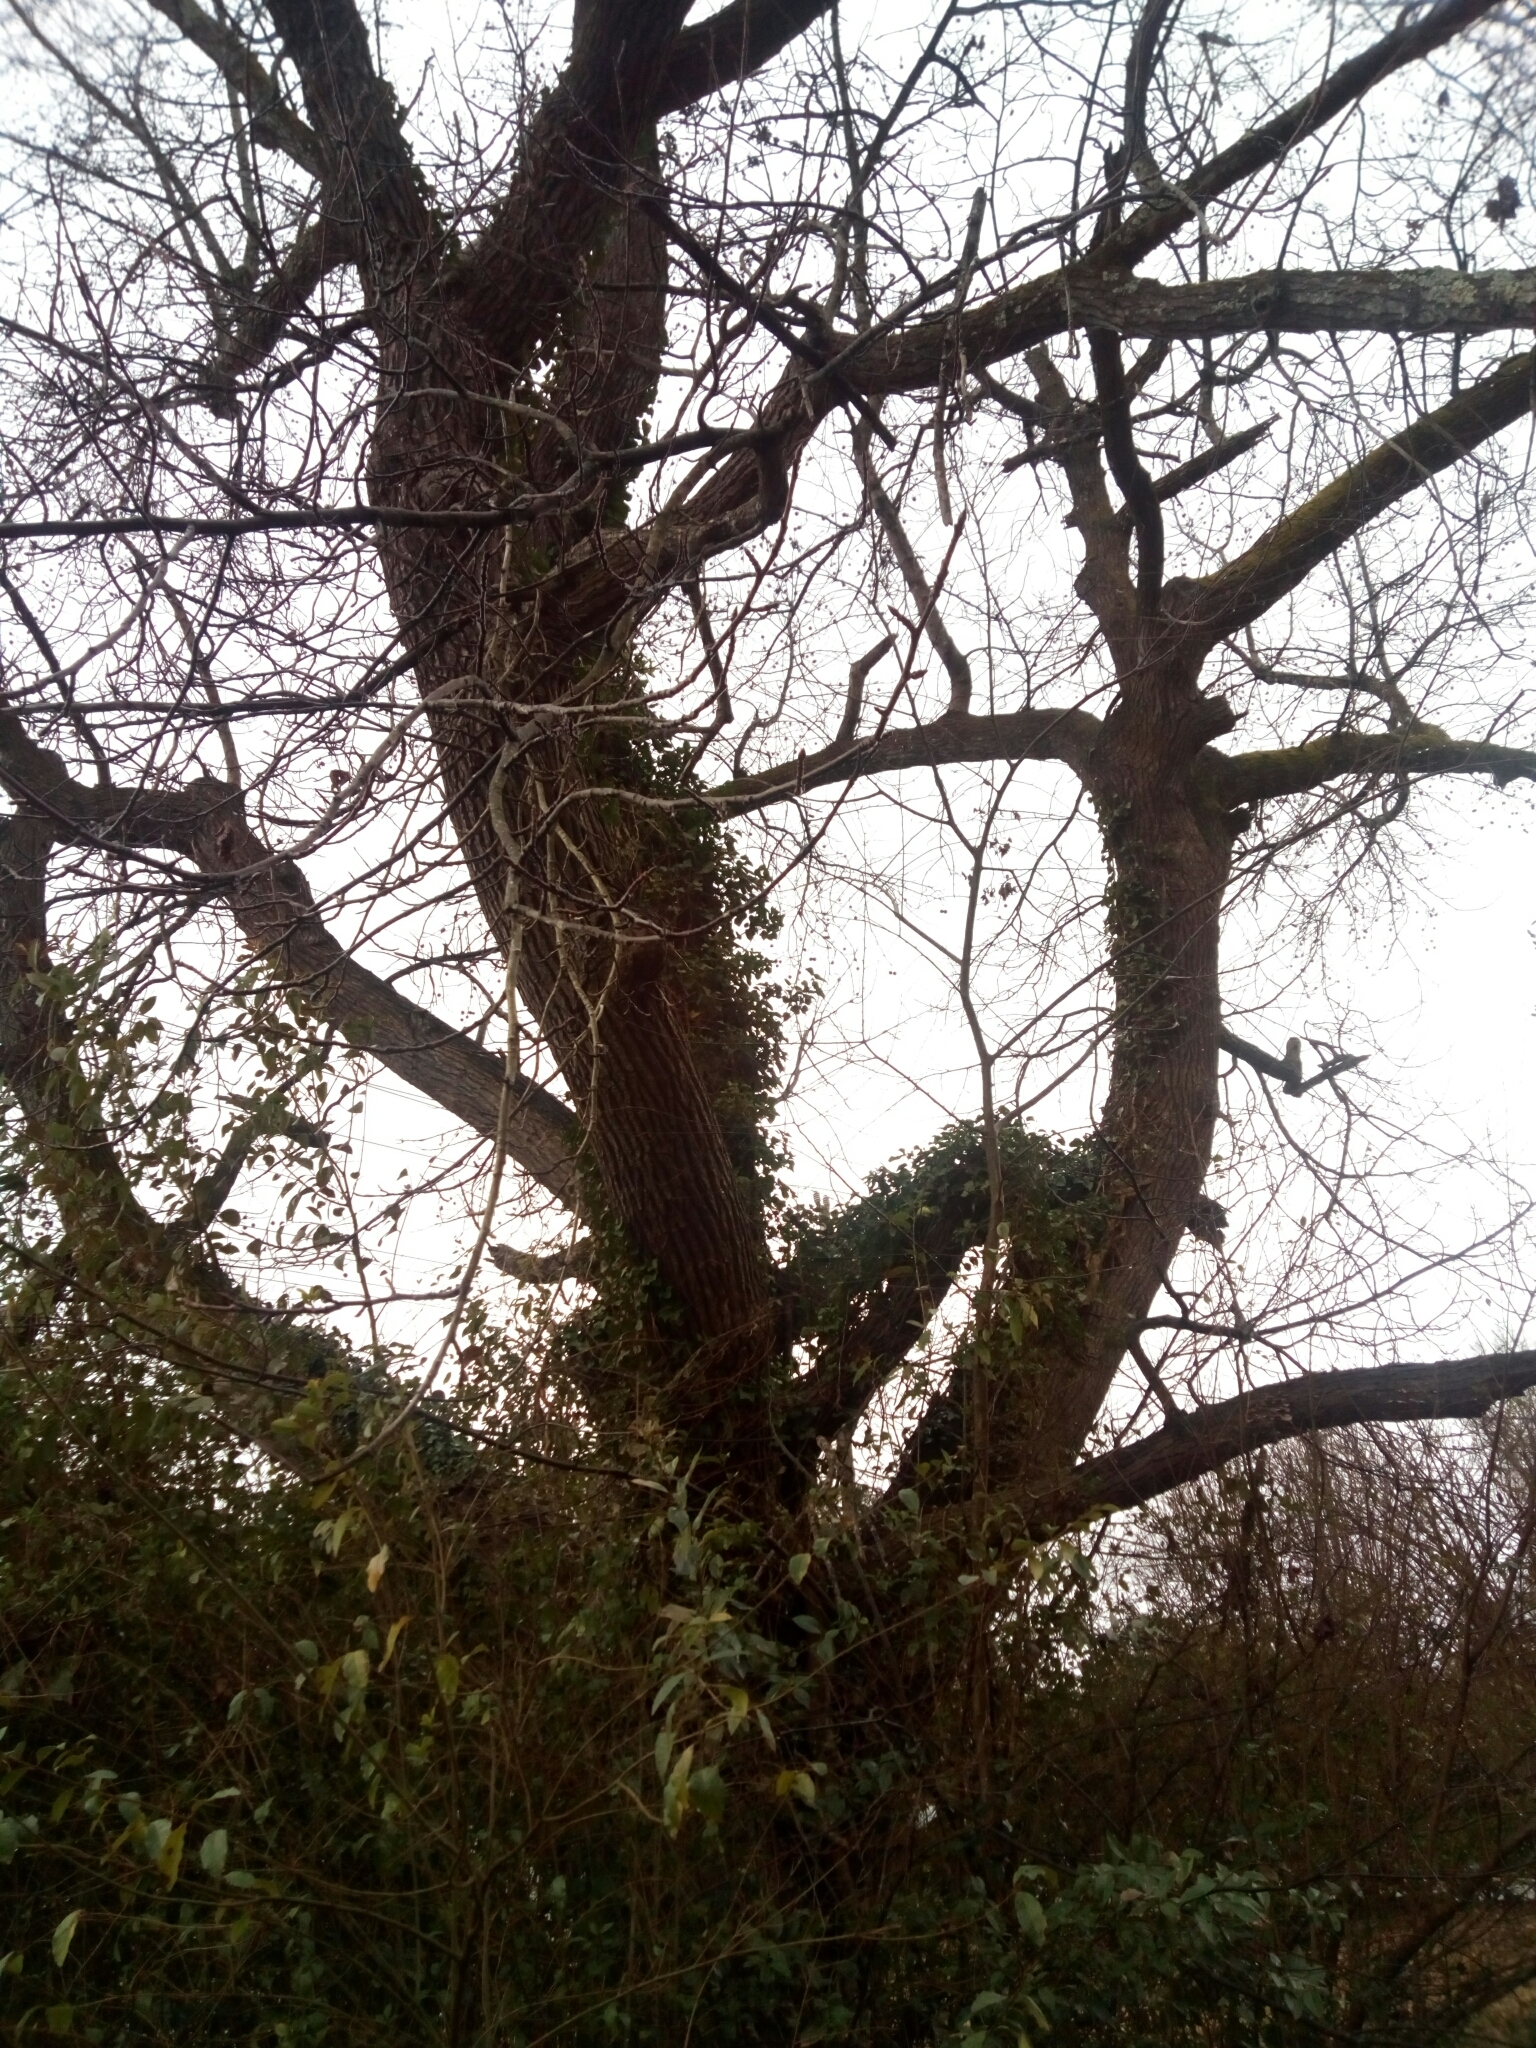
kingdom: Plantae
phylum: Tracheophyta
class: Magnoliopsida
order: Saxifragales
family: Altingiaceae
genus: Liquidambar
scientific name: Liquidambar styraciflua
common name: Sweet gum
